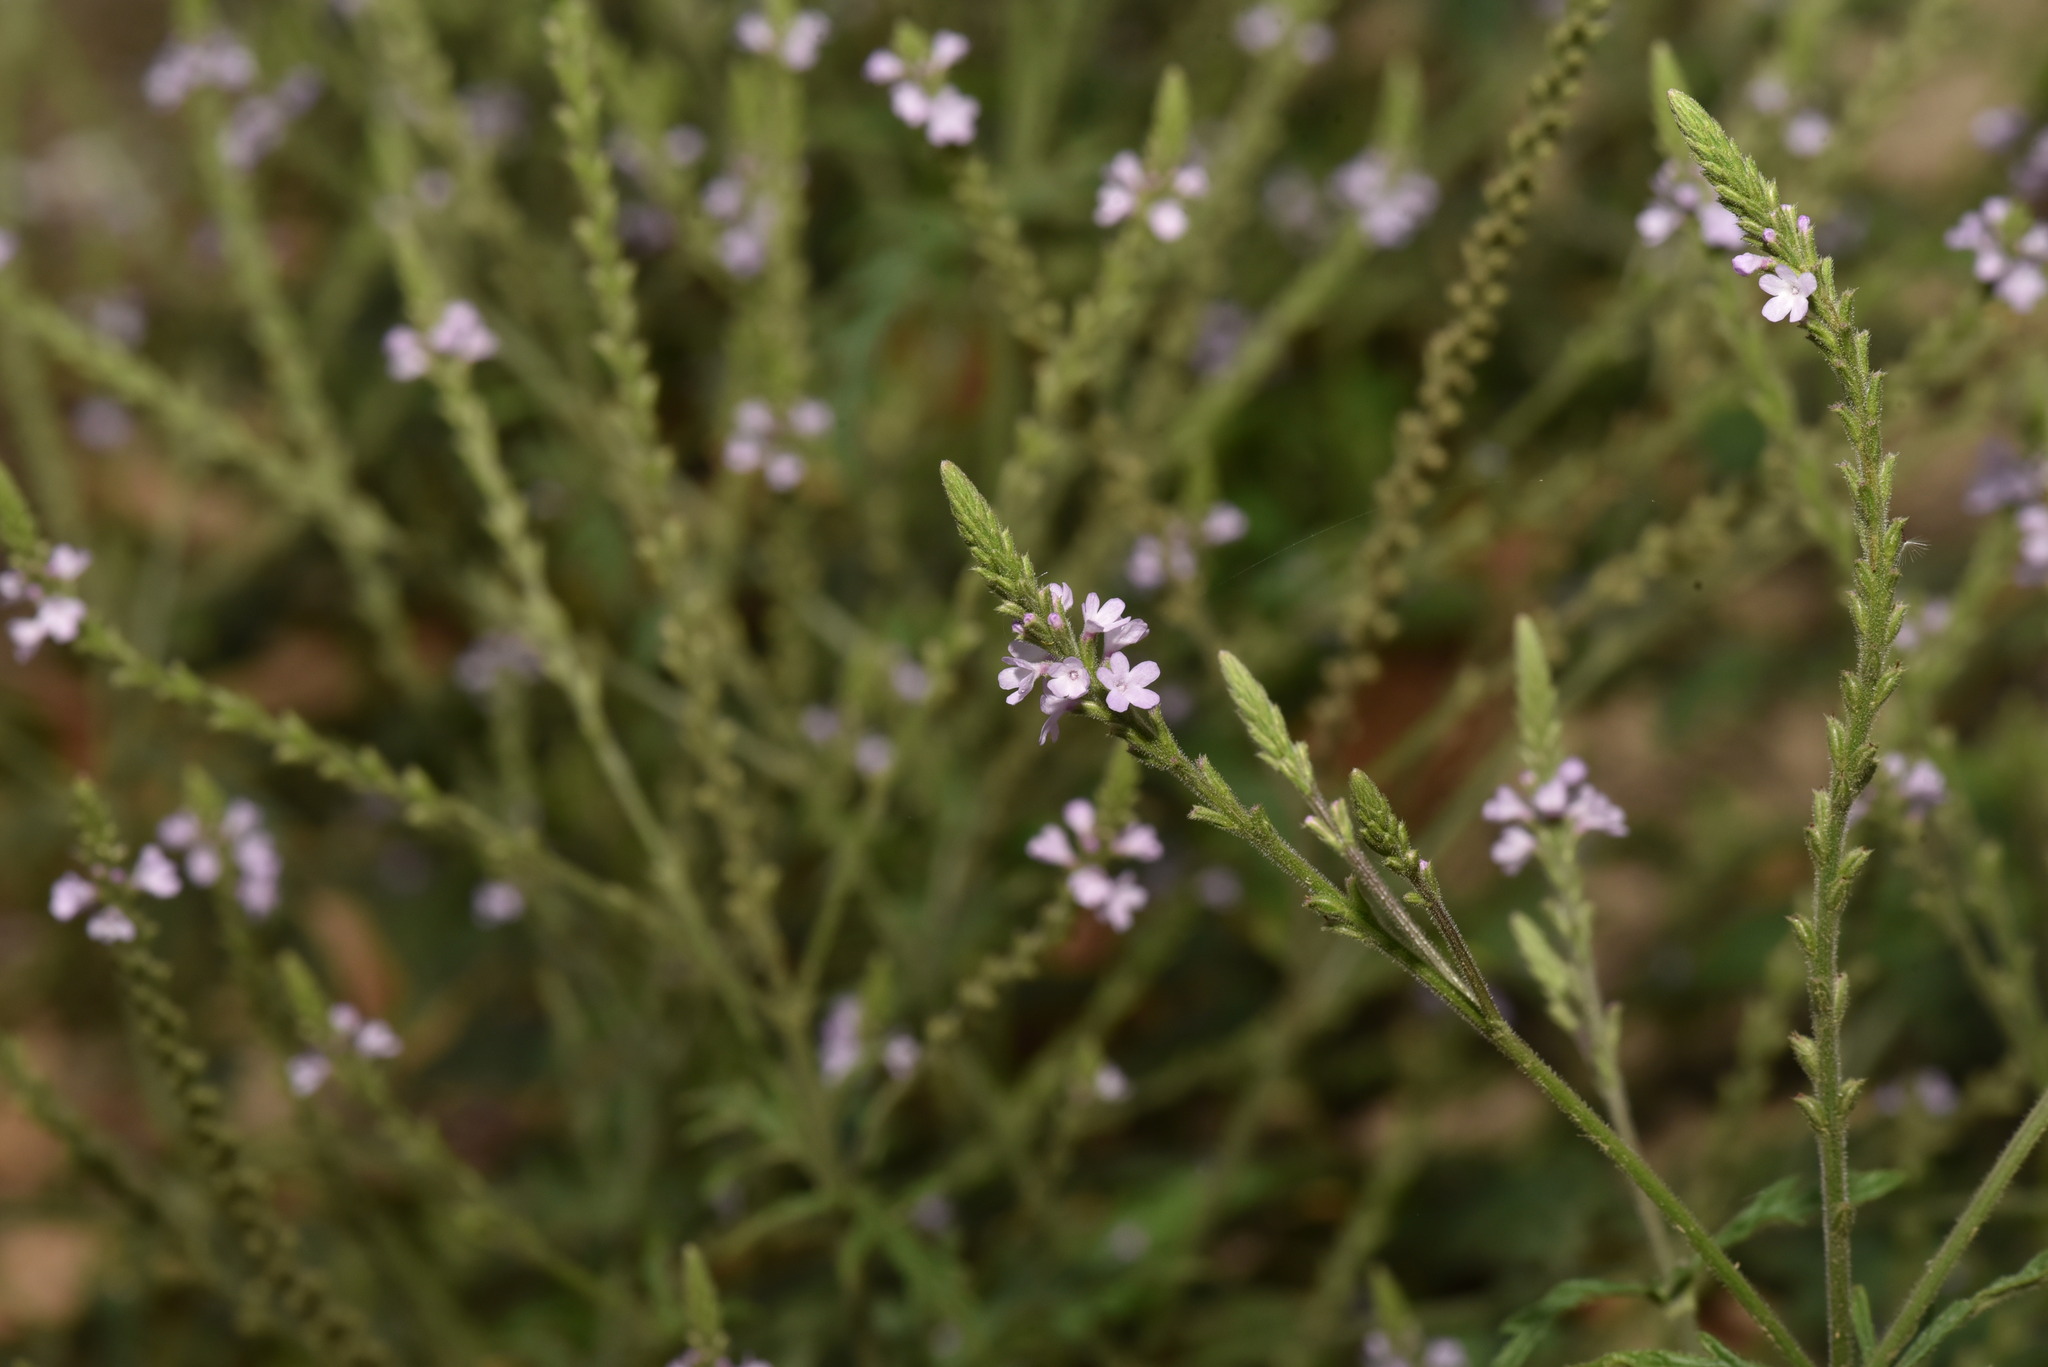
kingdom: Plantae
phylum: Tracheophyta
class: Magnoliopsida
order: Lamiales
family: Verbenaceae
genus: Verbena
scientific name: Verbena officinalis
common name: Vervain
